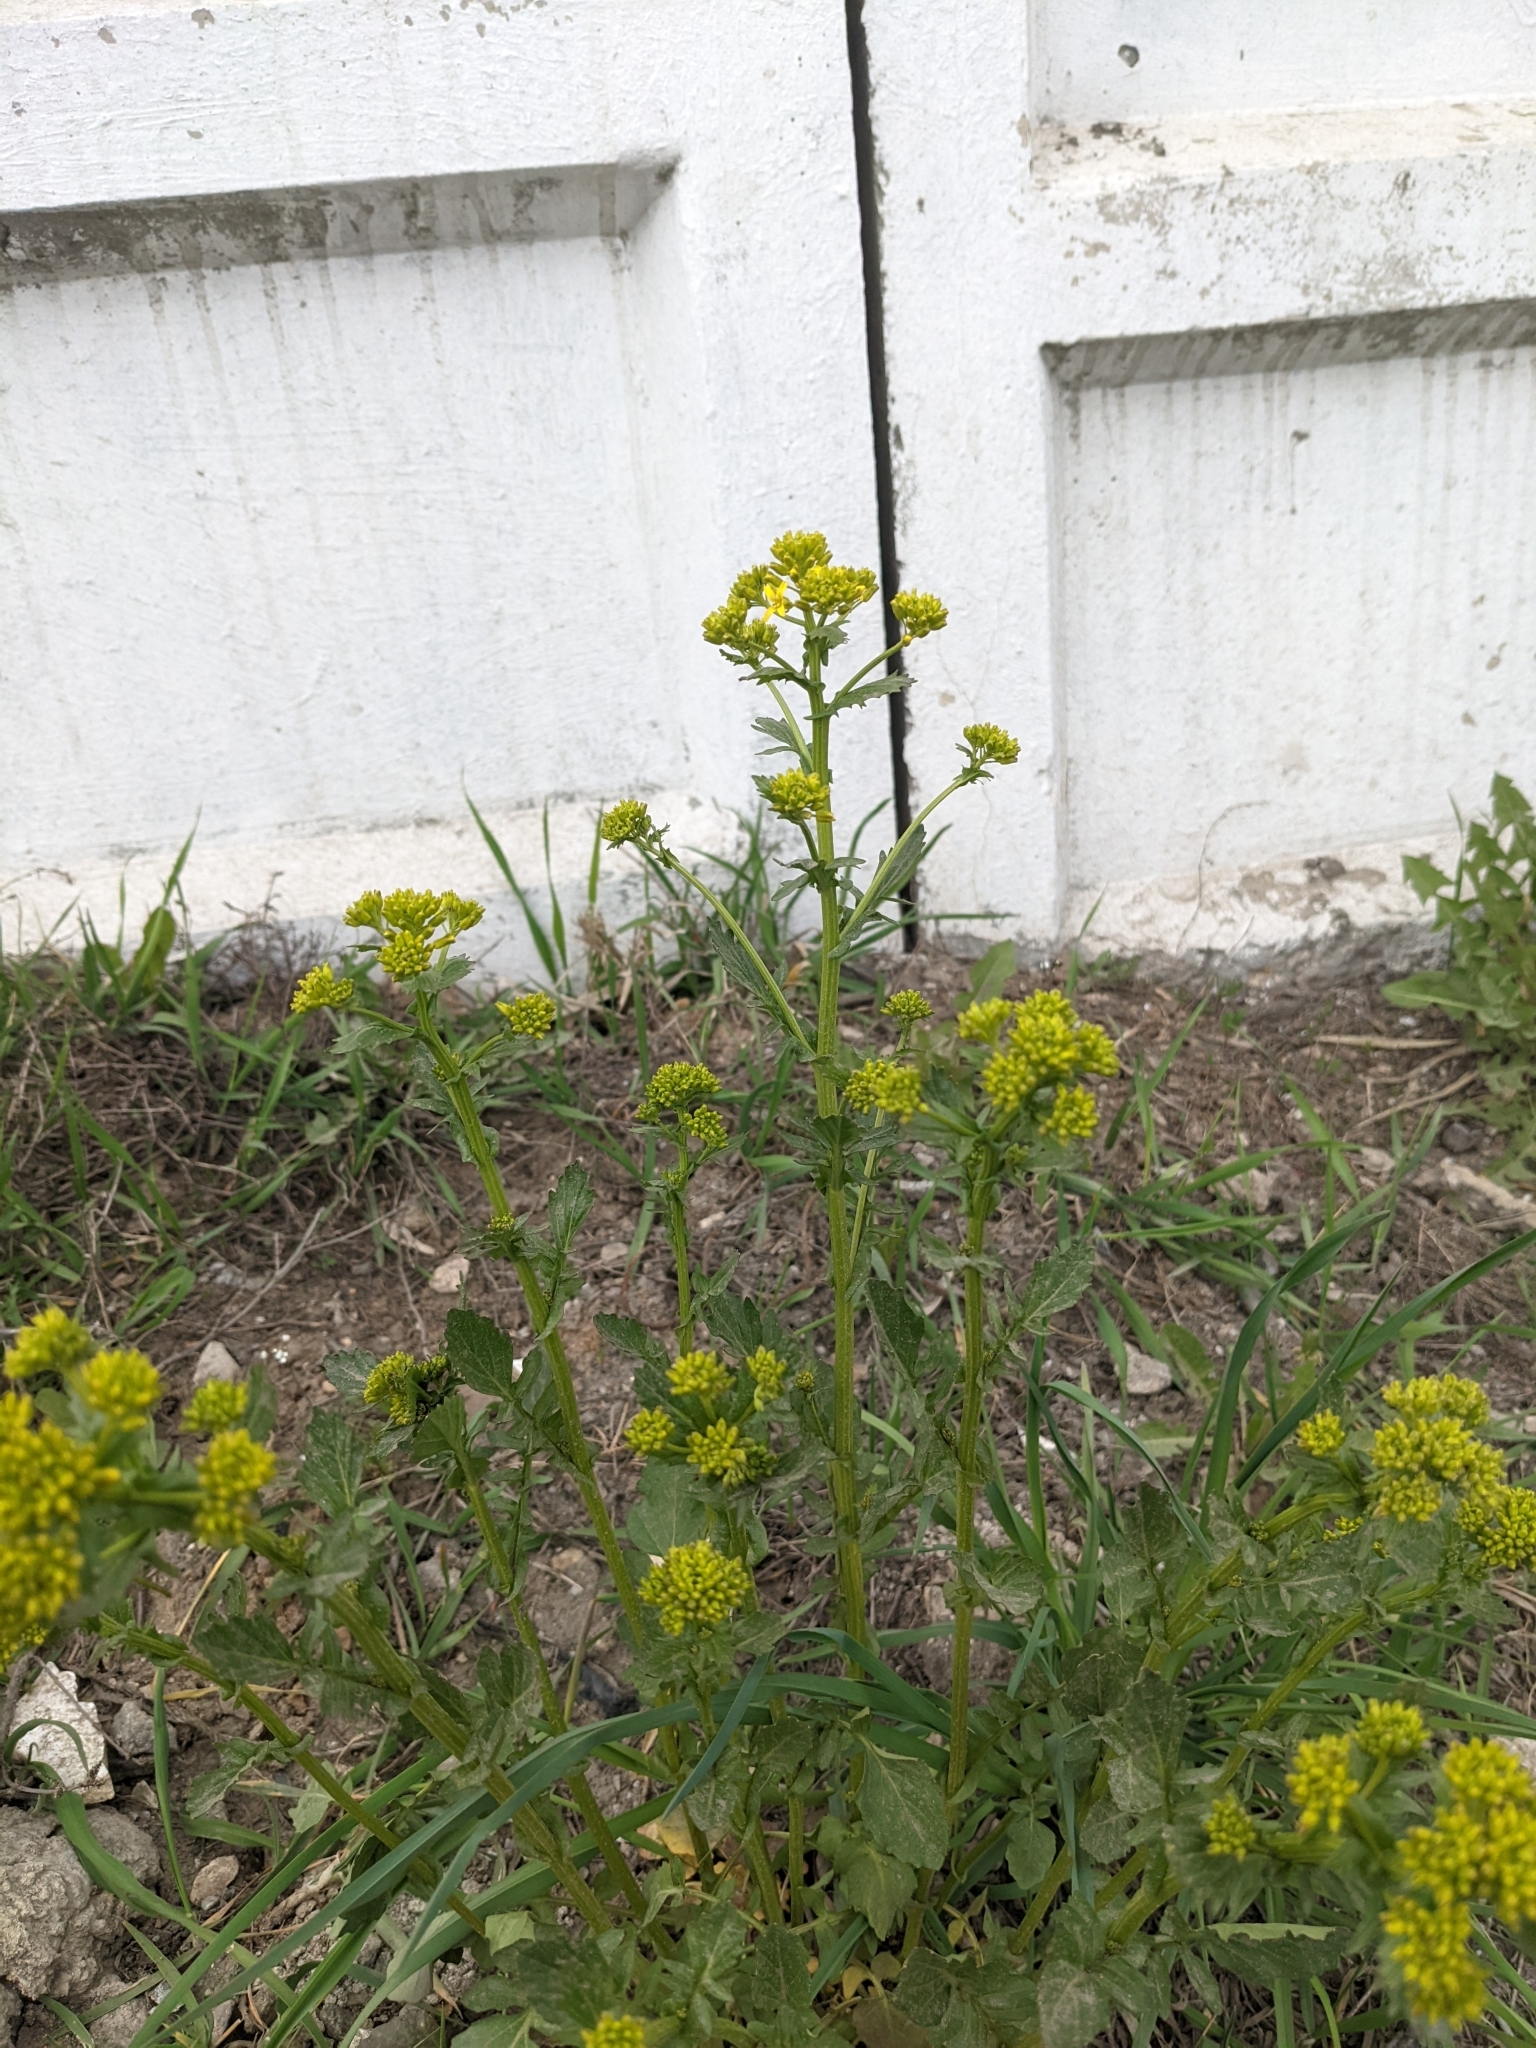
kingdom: Plantae
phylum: Tracheophyta
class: Magnoliopsida
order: Brassicales
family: Brassicaceae
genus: Barbarea
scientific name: Barbarea vulgaris
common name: Cressy-greens
